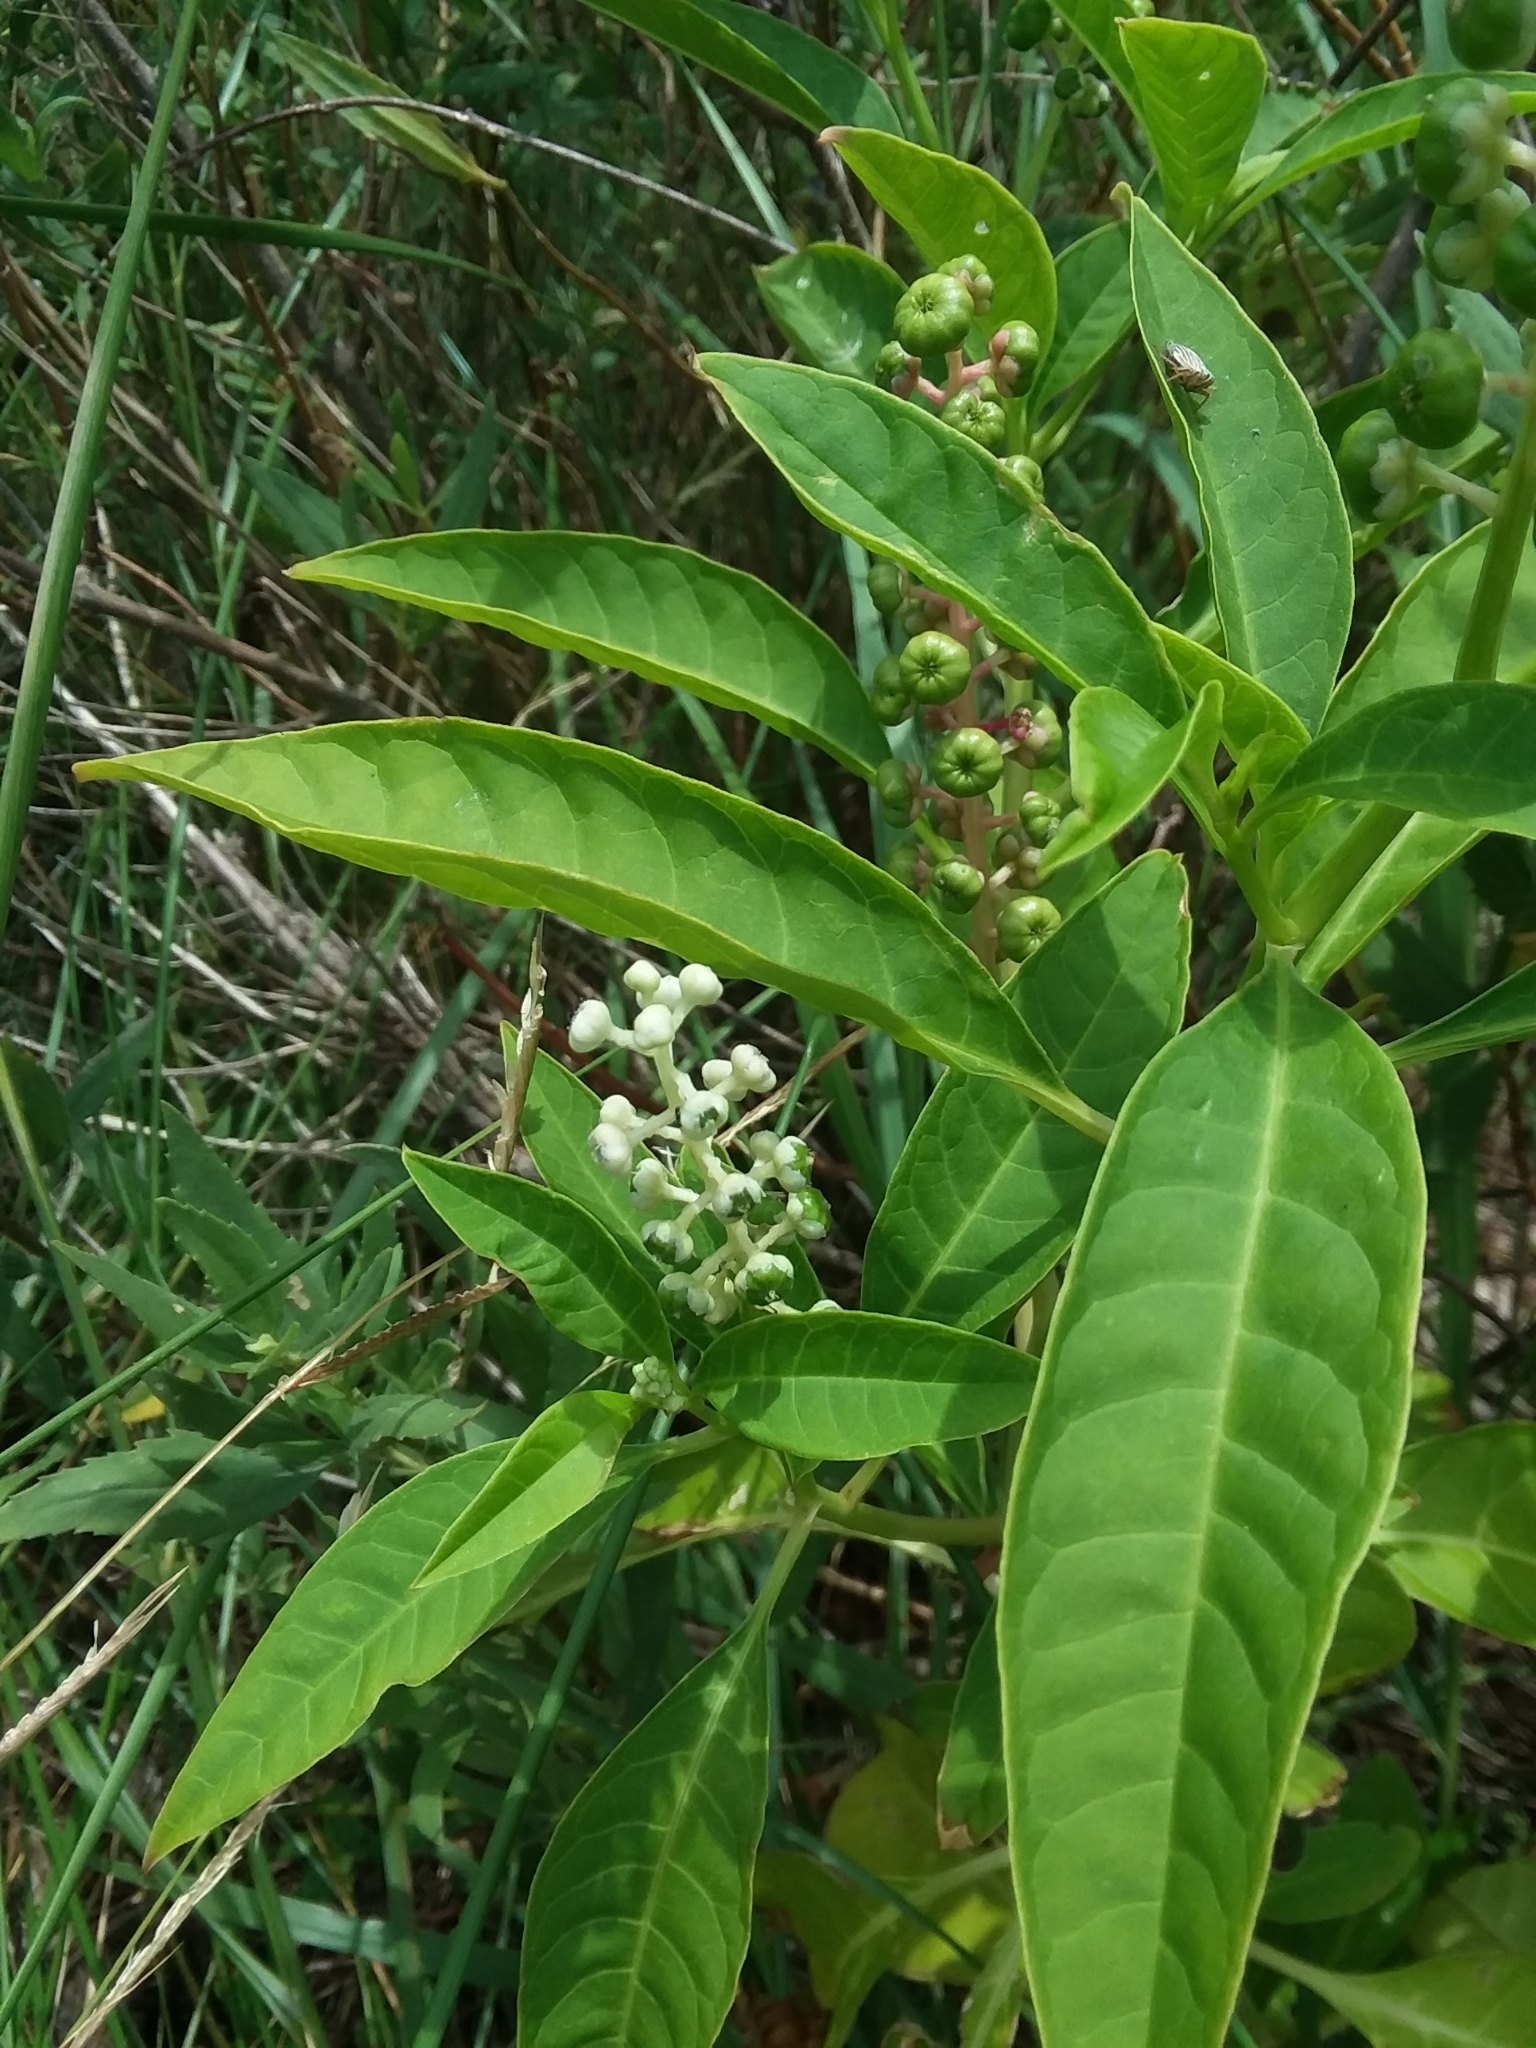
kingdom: Plantae
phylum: Tracheophyta
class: Magnoliopsida
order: Caryophyllales
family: Phytolaccaceae
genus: Phytolacca
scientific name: Phytolacca americana
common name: American pokeweed
